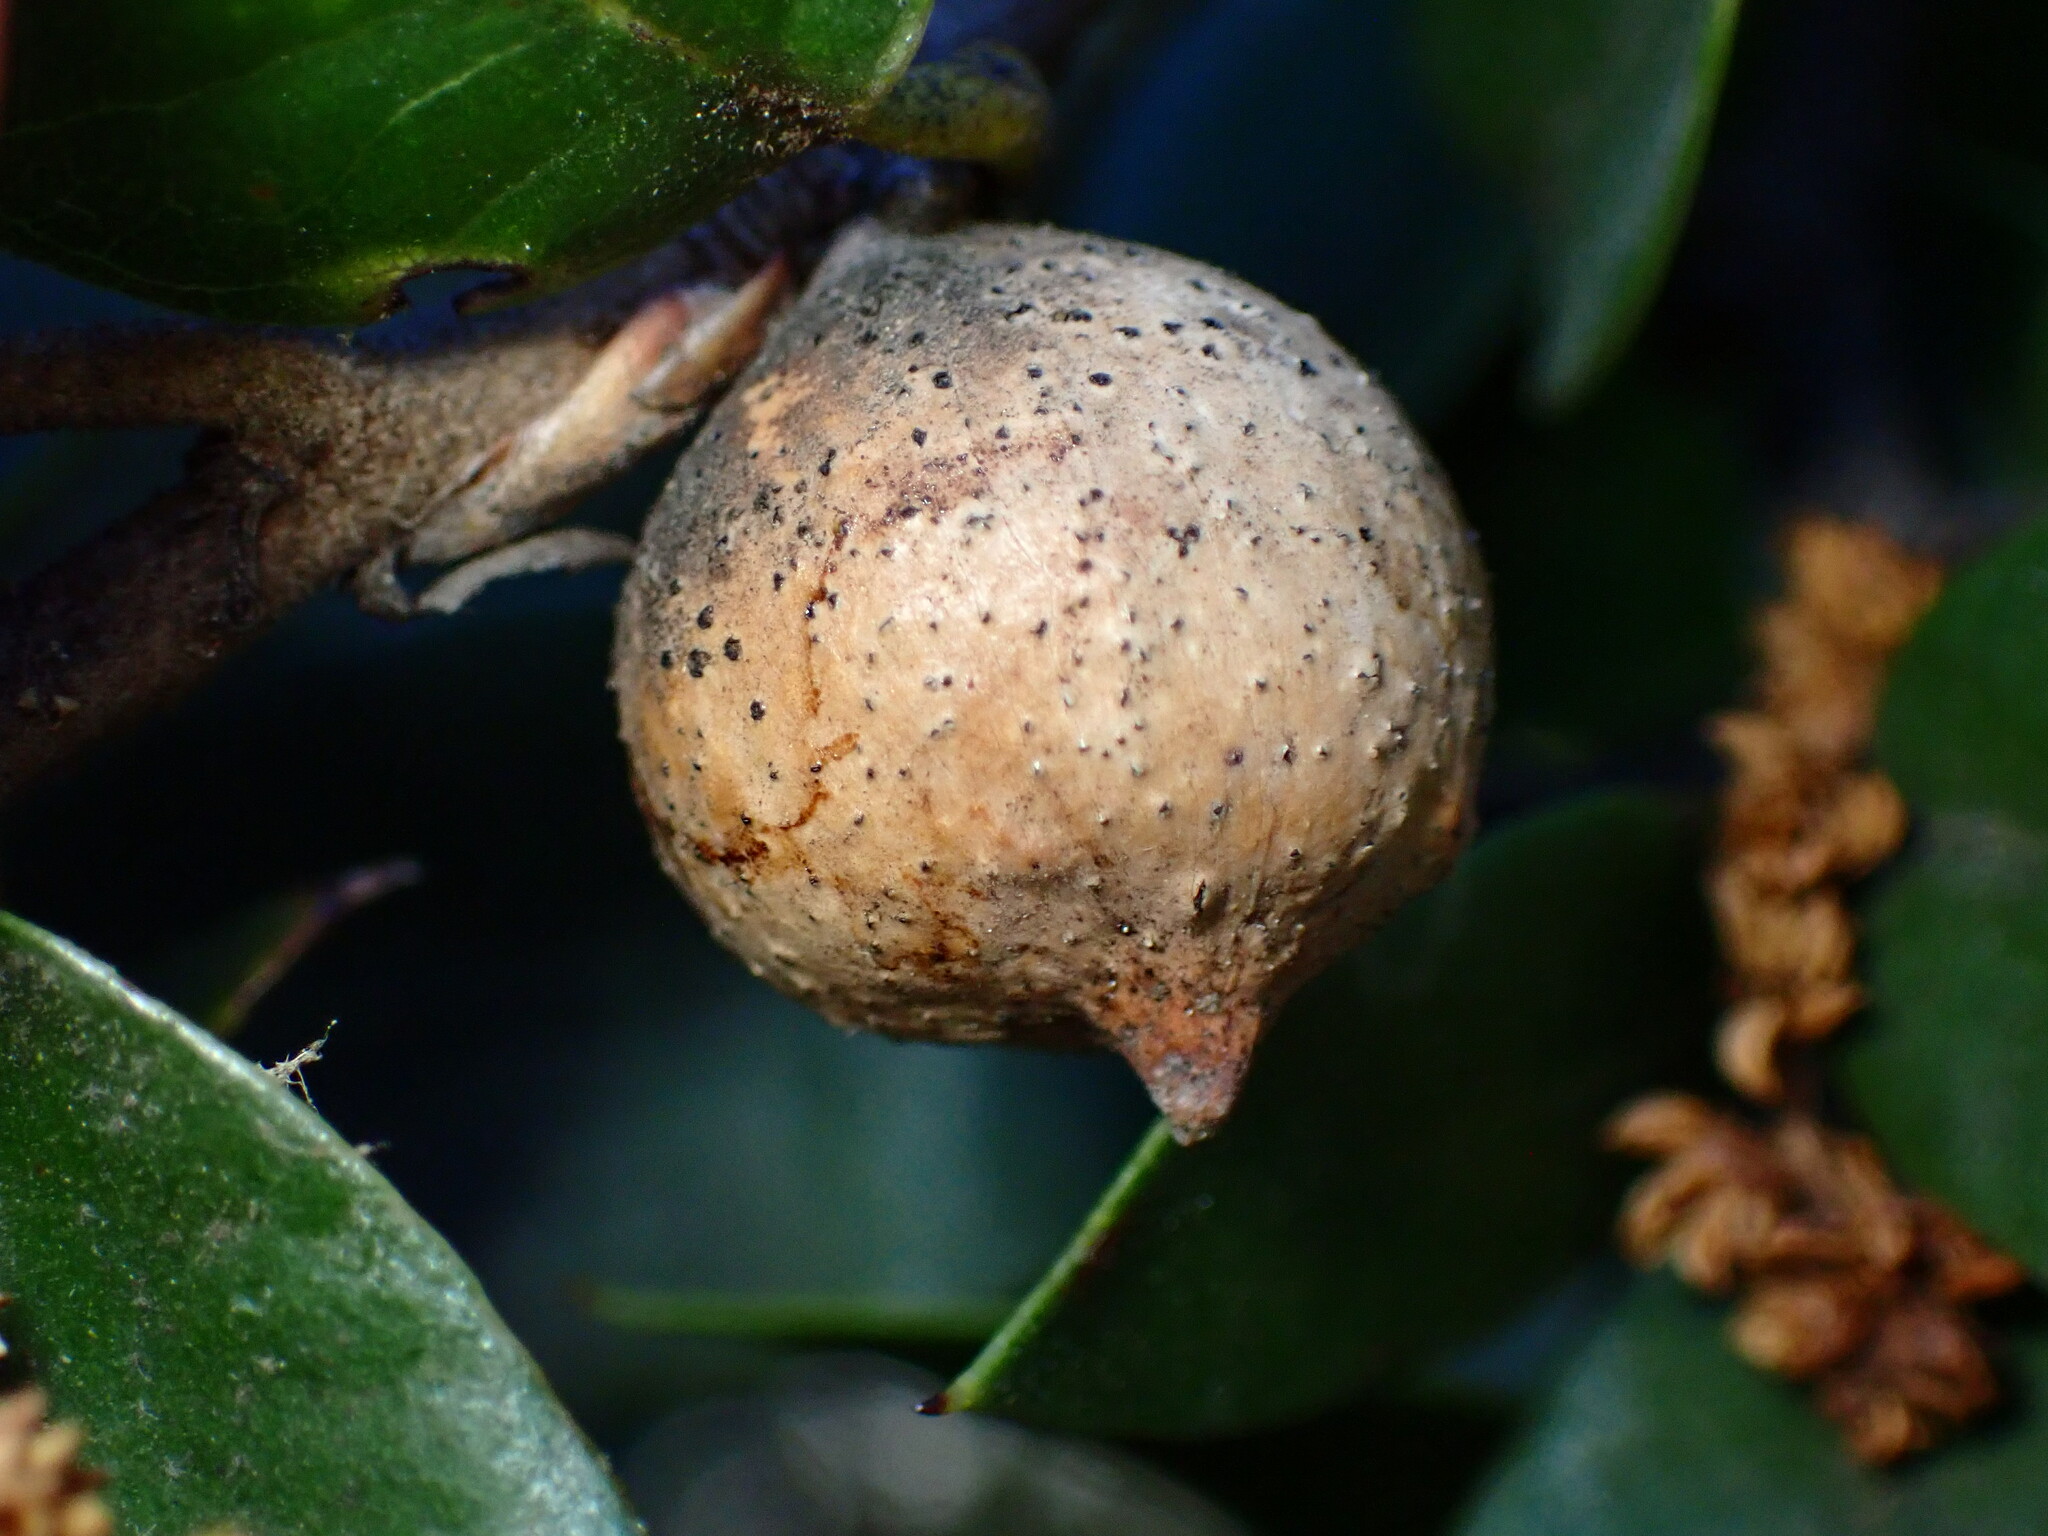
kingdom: Animalia
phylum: Arthropoda
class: Insecta
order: Hymenoptera
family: Cynipidae
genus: Heteroecus
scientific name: Heteroecus
